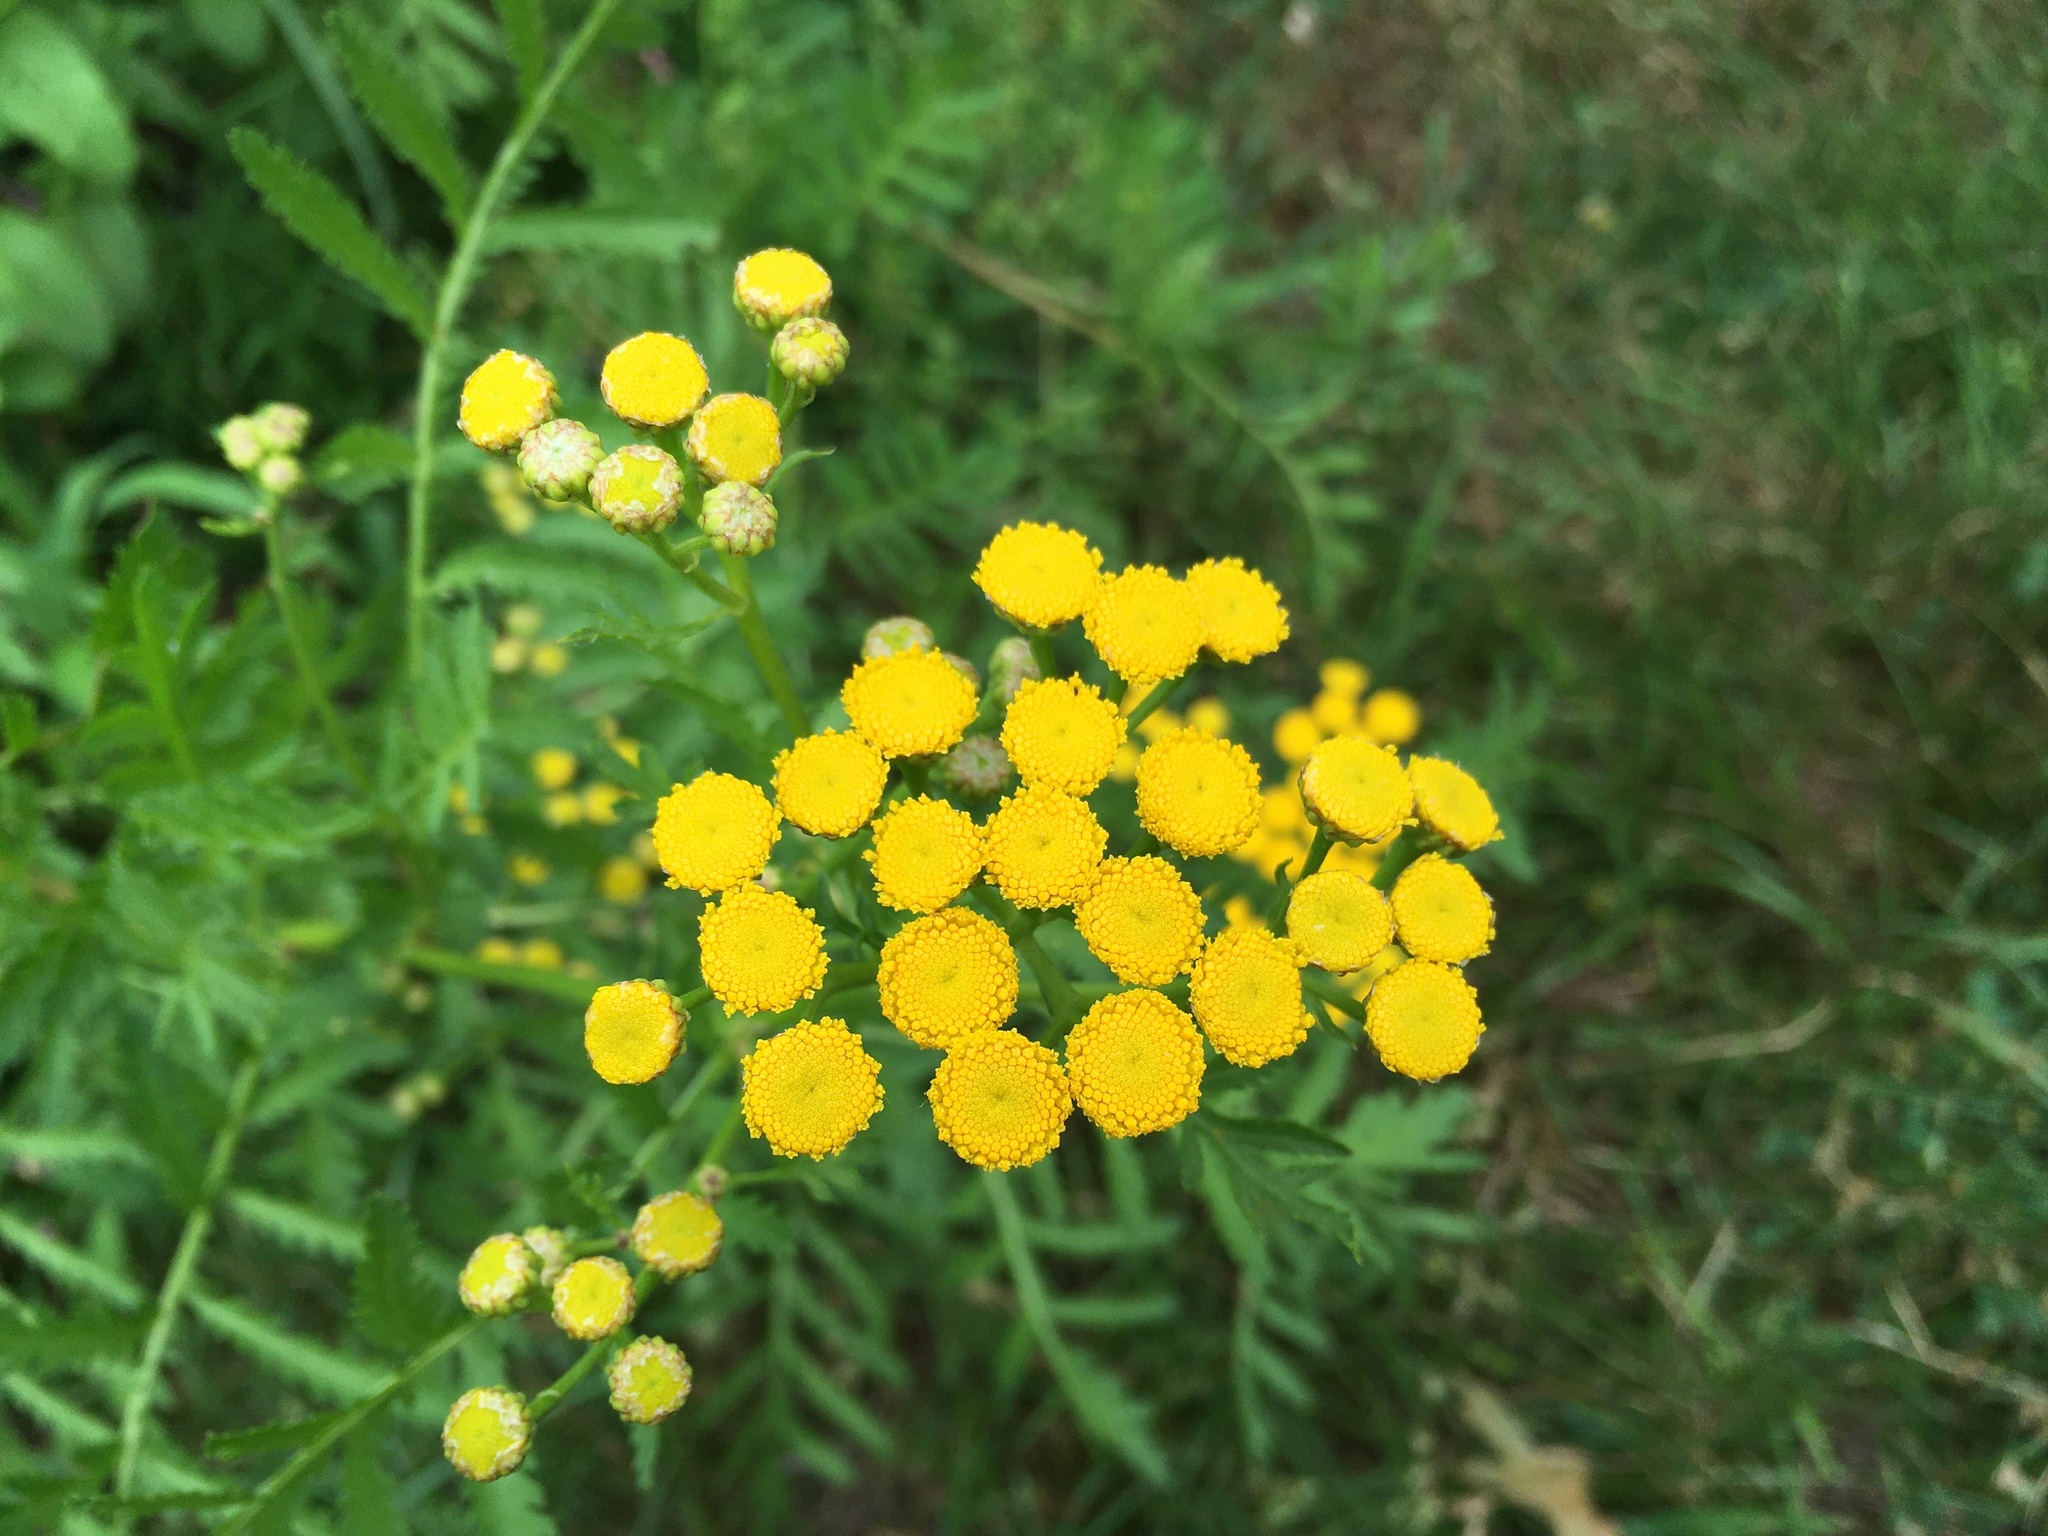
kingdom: Plantae
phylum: Tracheophyta
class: Magnoliopsida
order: Asterales
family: Asteraceae
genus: Tanacetum
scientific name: Tanacetum vulgare
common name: Common tansy
